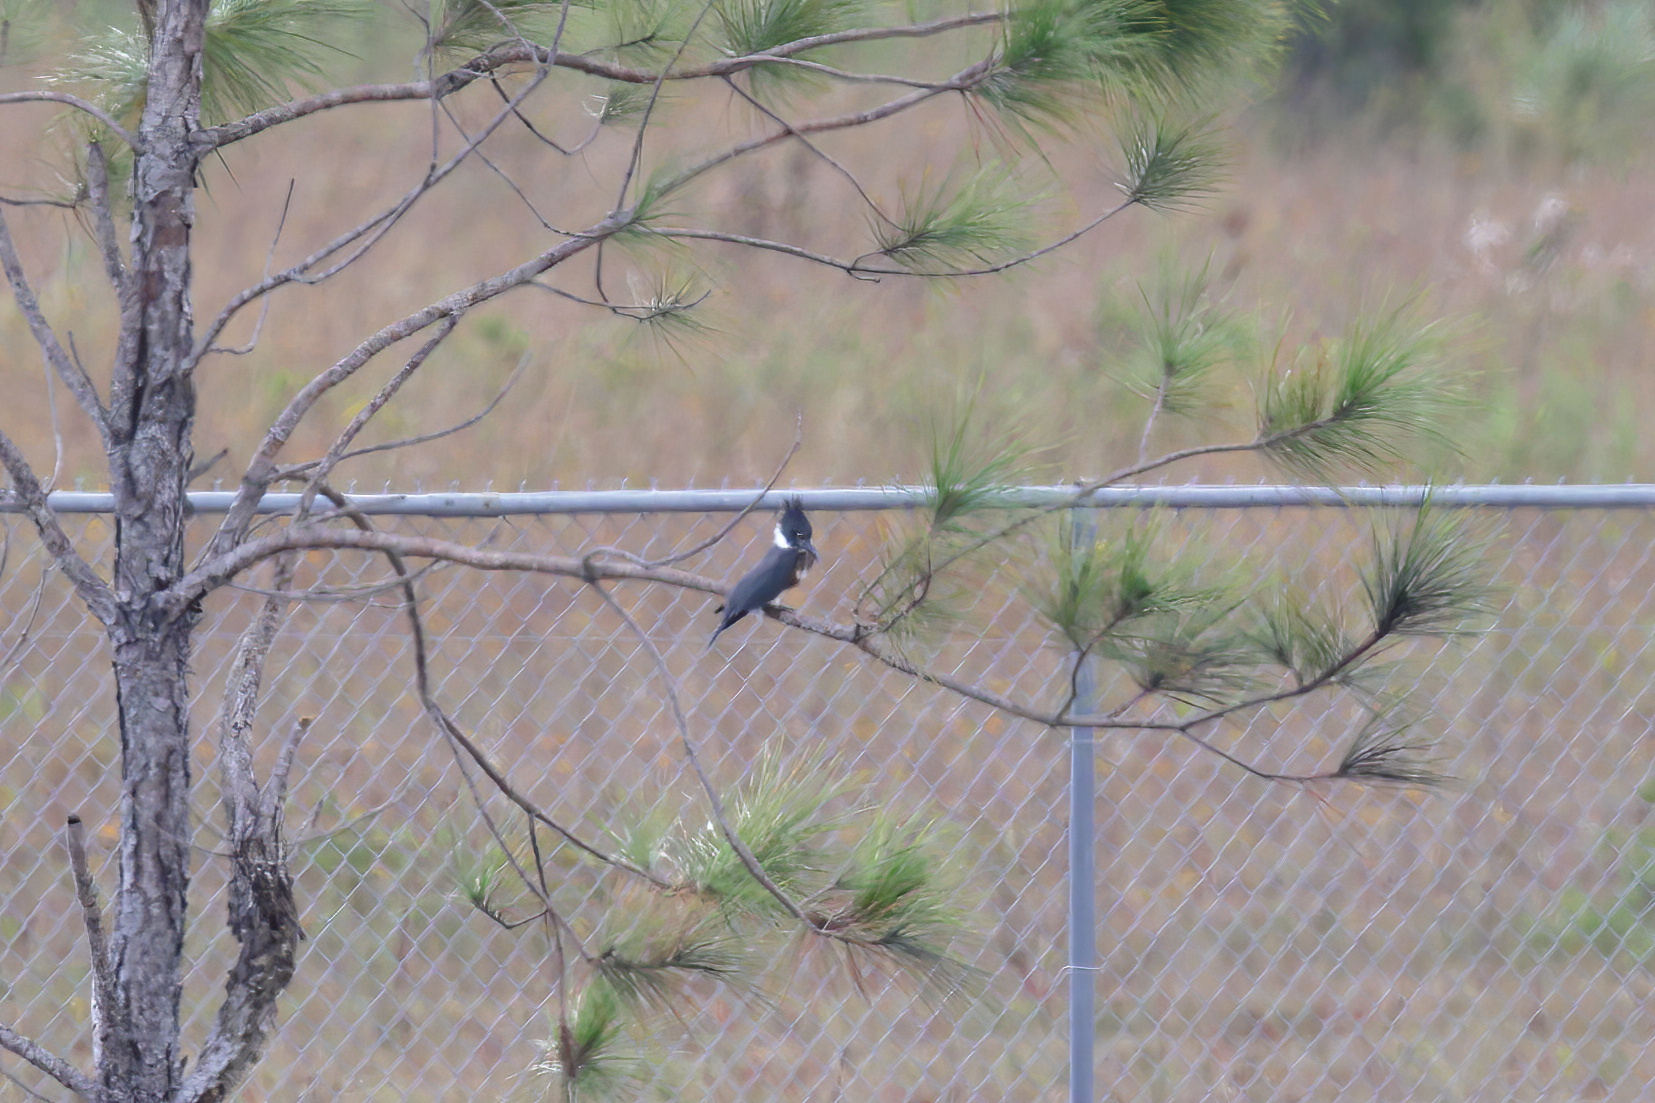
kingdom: Animalia
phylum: Chordata
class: Aves
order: Coraciiformes
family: Alcedinidae
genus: Megaceryle
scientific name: Megaceryle alcyon
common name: Belted kingfisher
